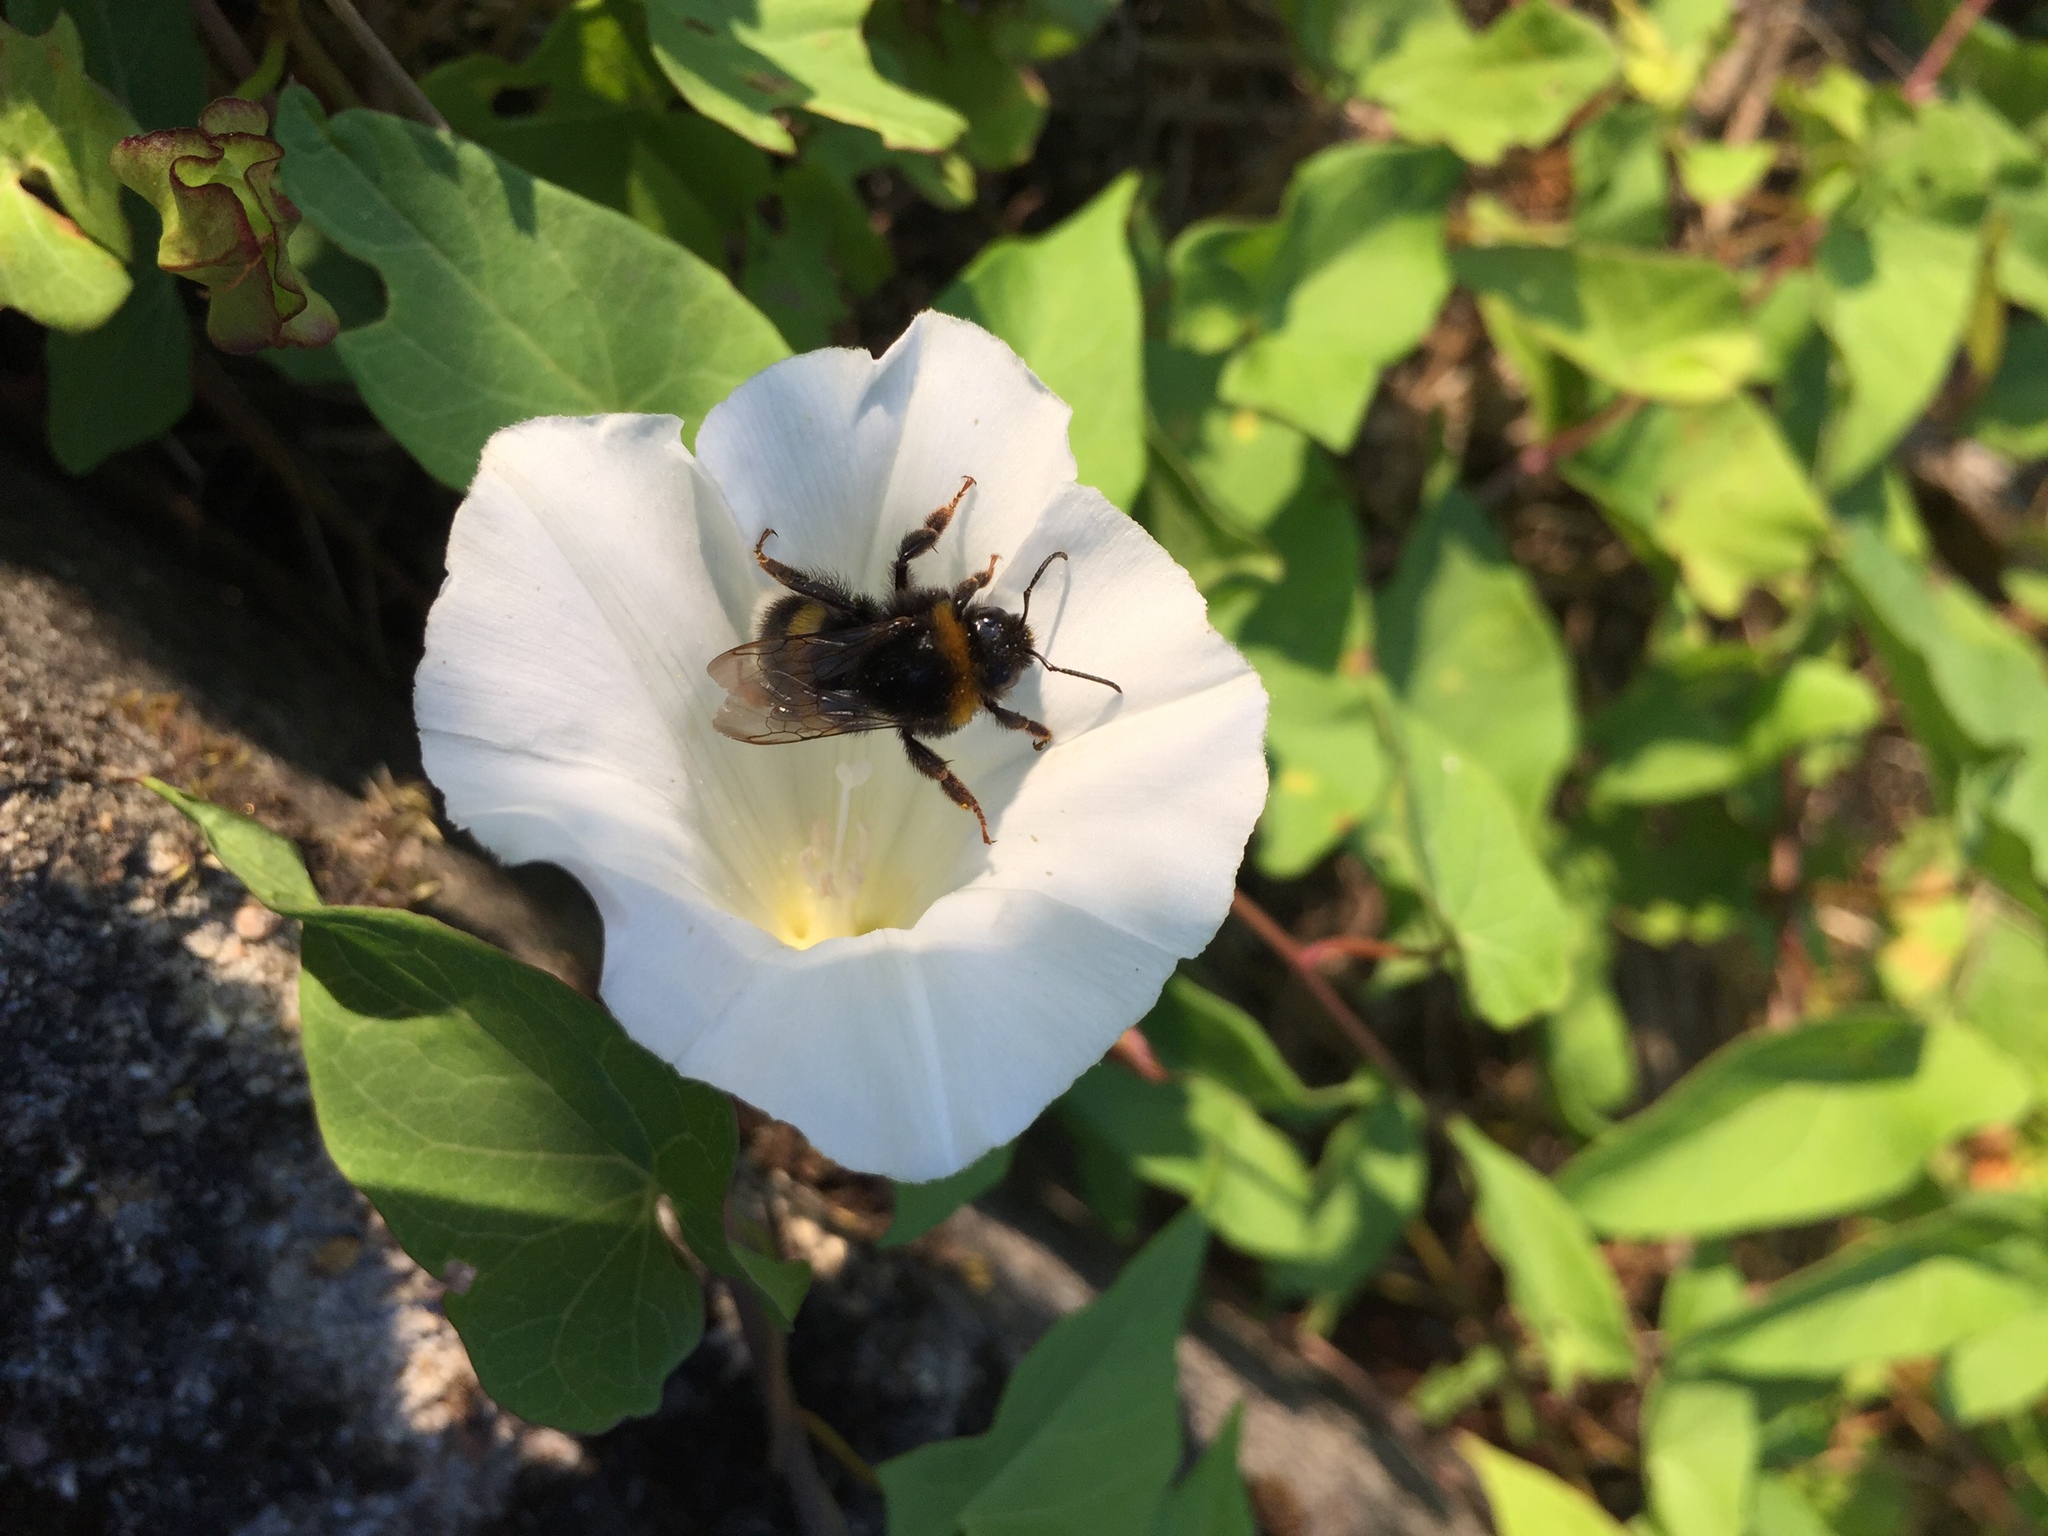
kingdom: Animalia
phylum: Arthropoda
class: Insecta
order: Hymenoptera
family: Apidae
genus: Bombus
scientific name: Bombus terrestris
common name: Buff-tailed bumblebee
